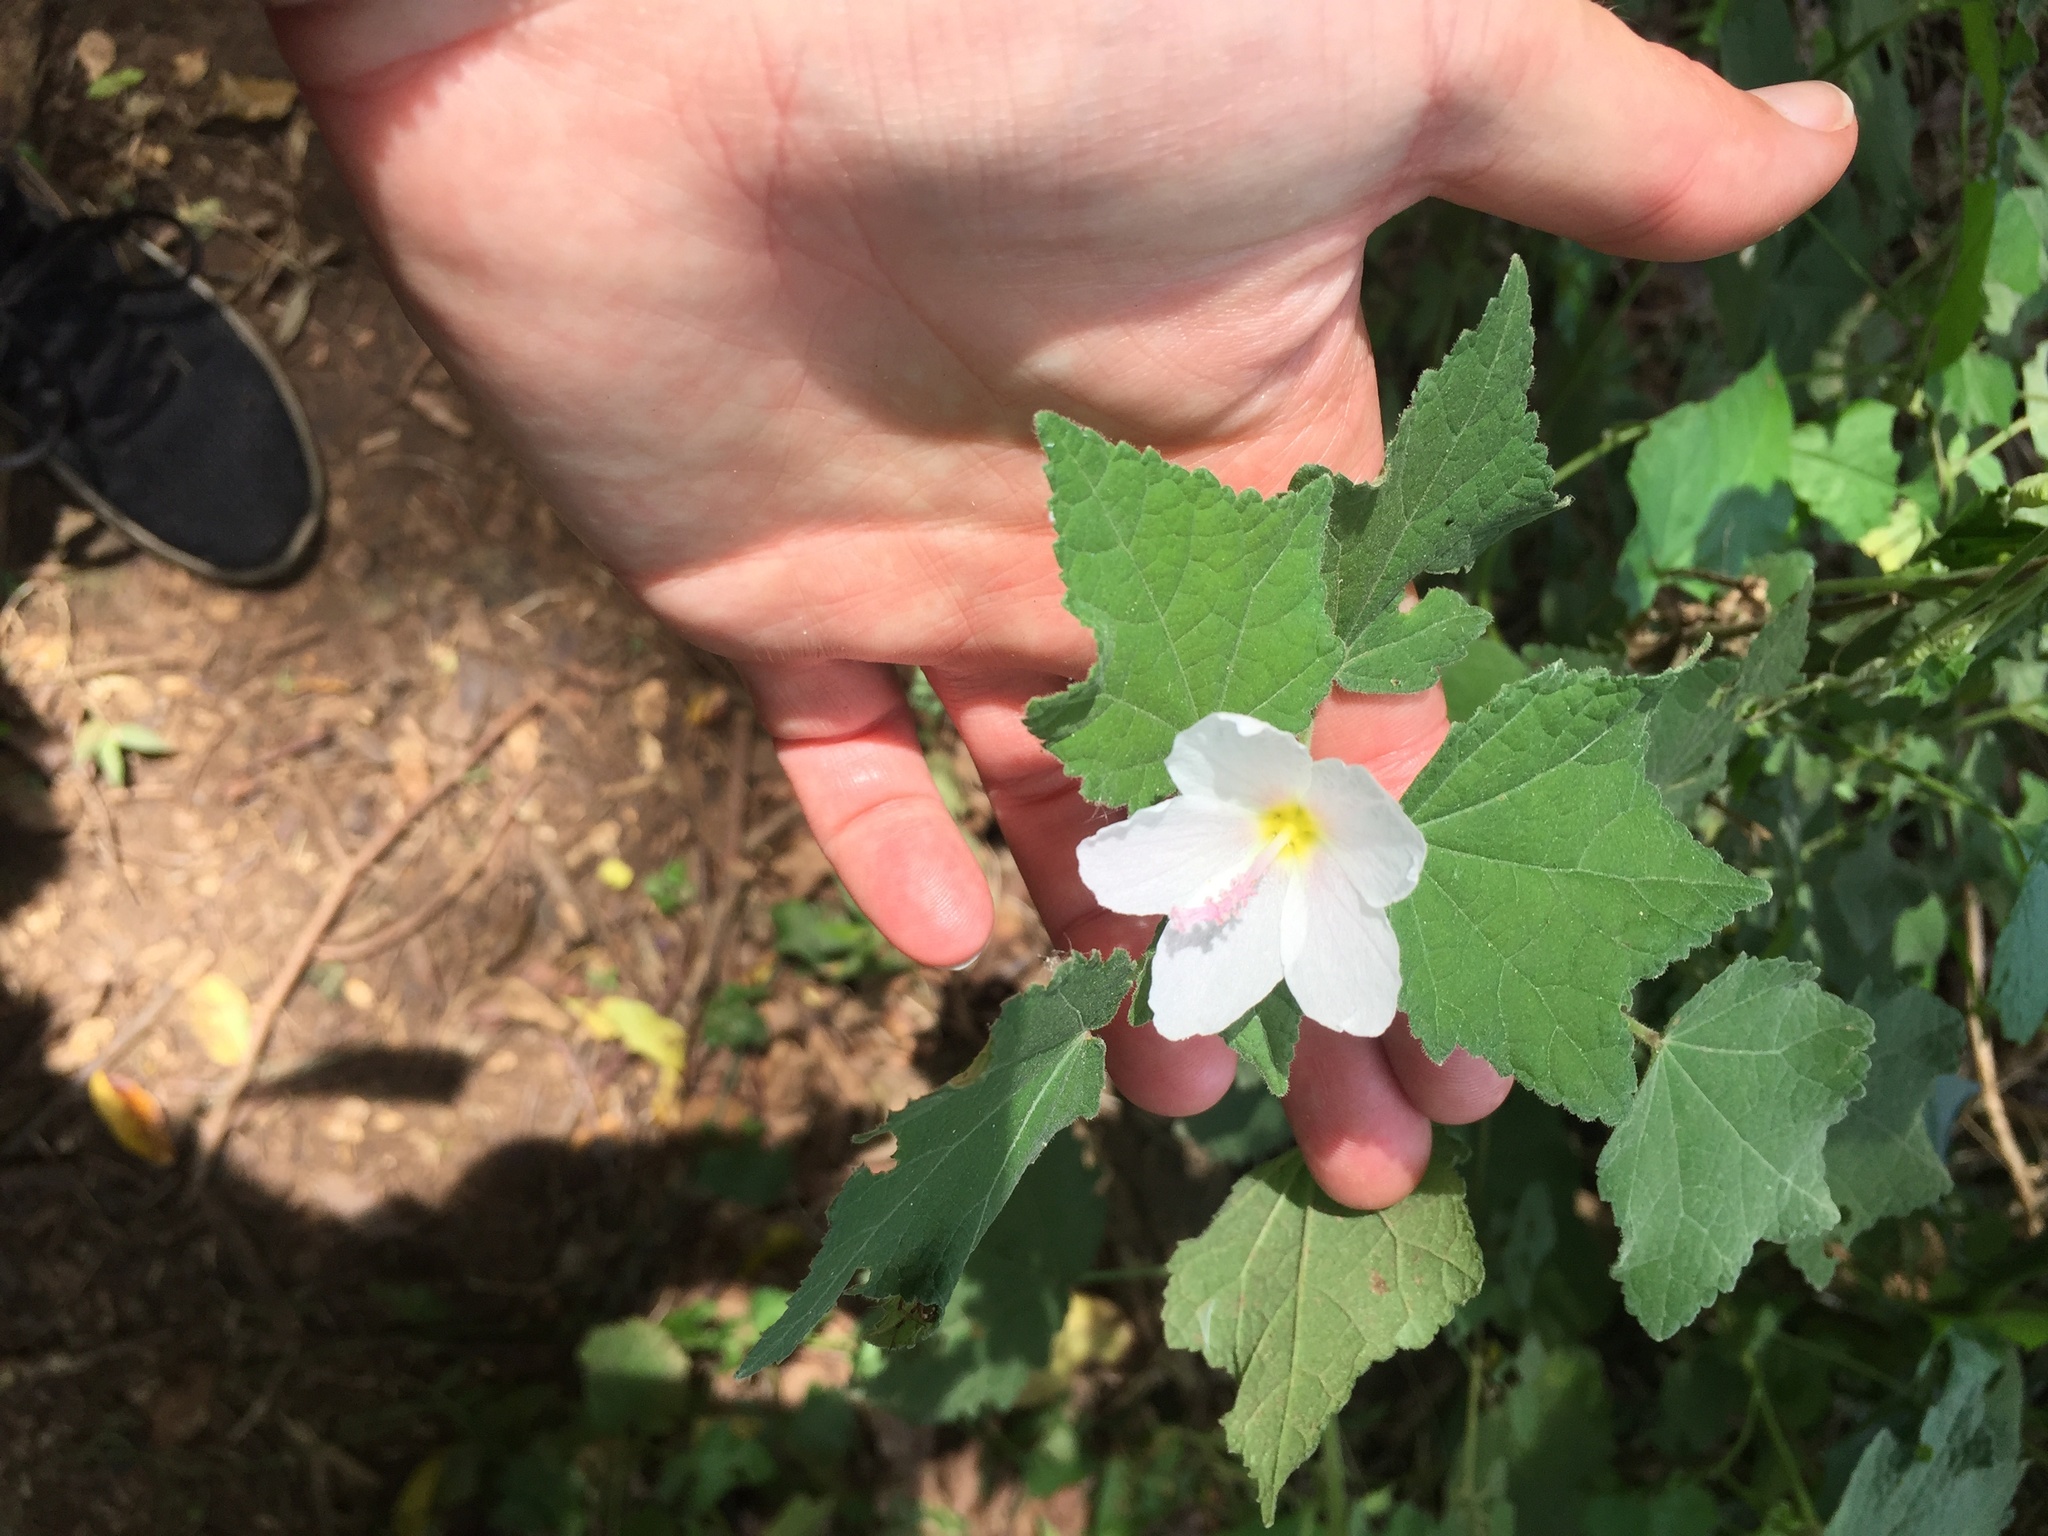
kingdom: Plantae
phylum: Tracheophyta
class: Magnoliopsida
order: Malvales
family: Malvaceae
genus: Pavonia
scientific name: Pavonia columella
